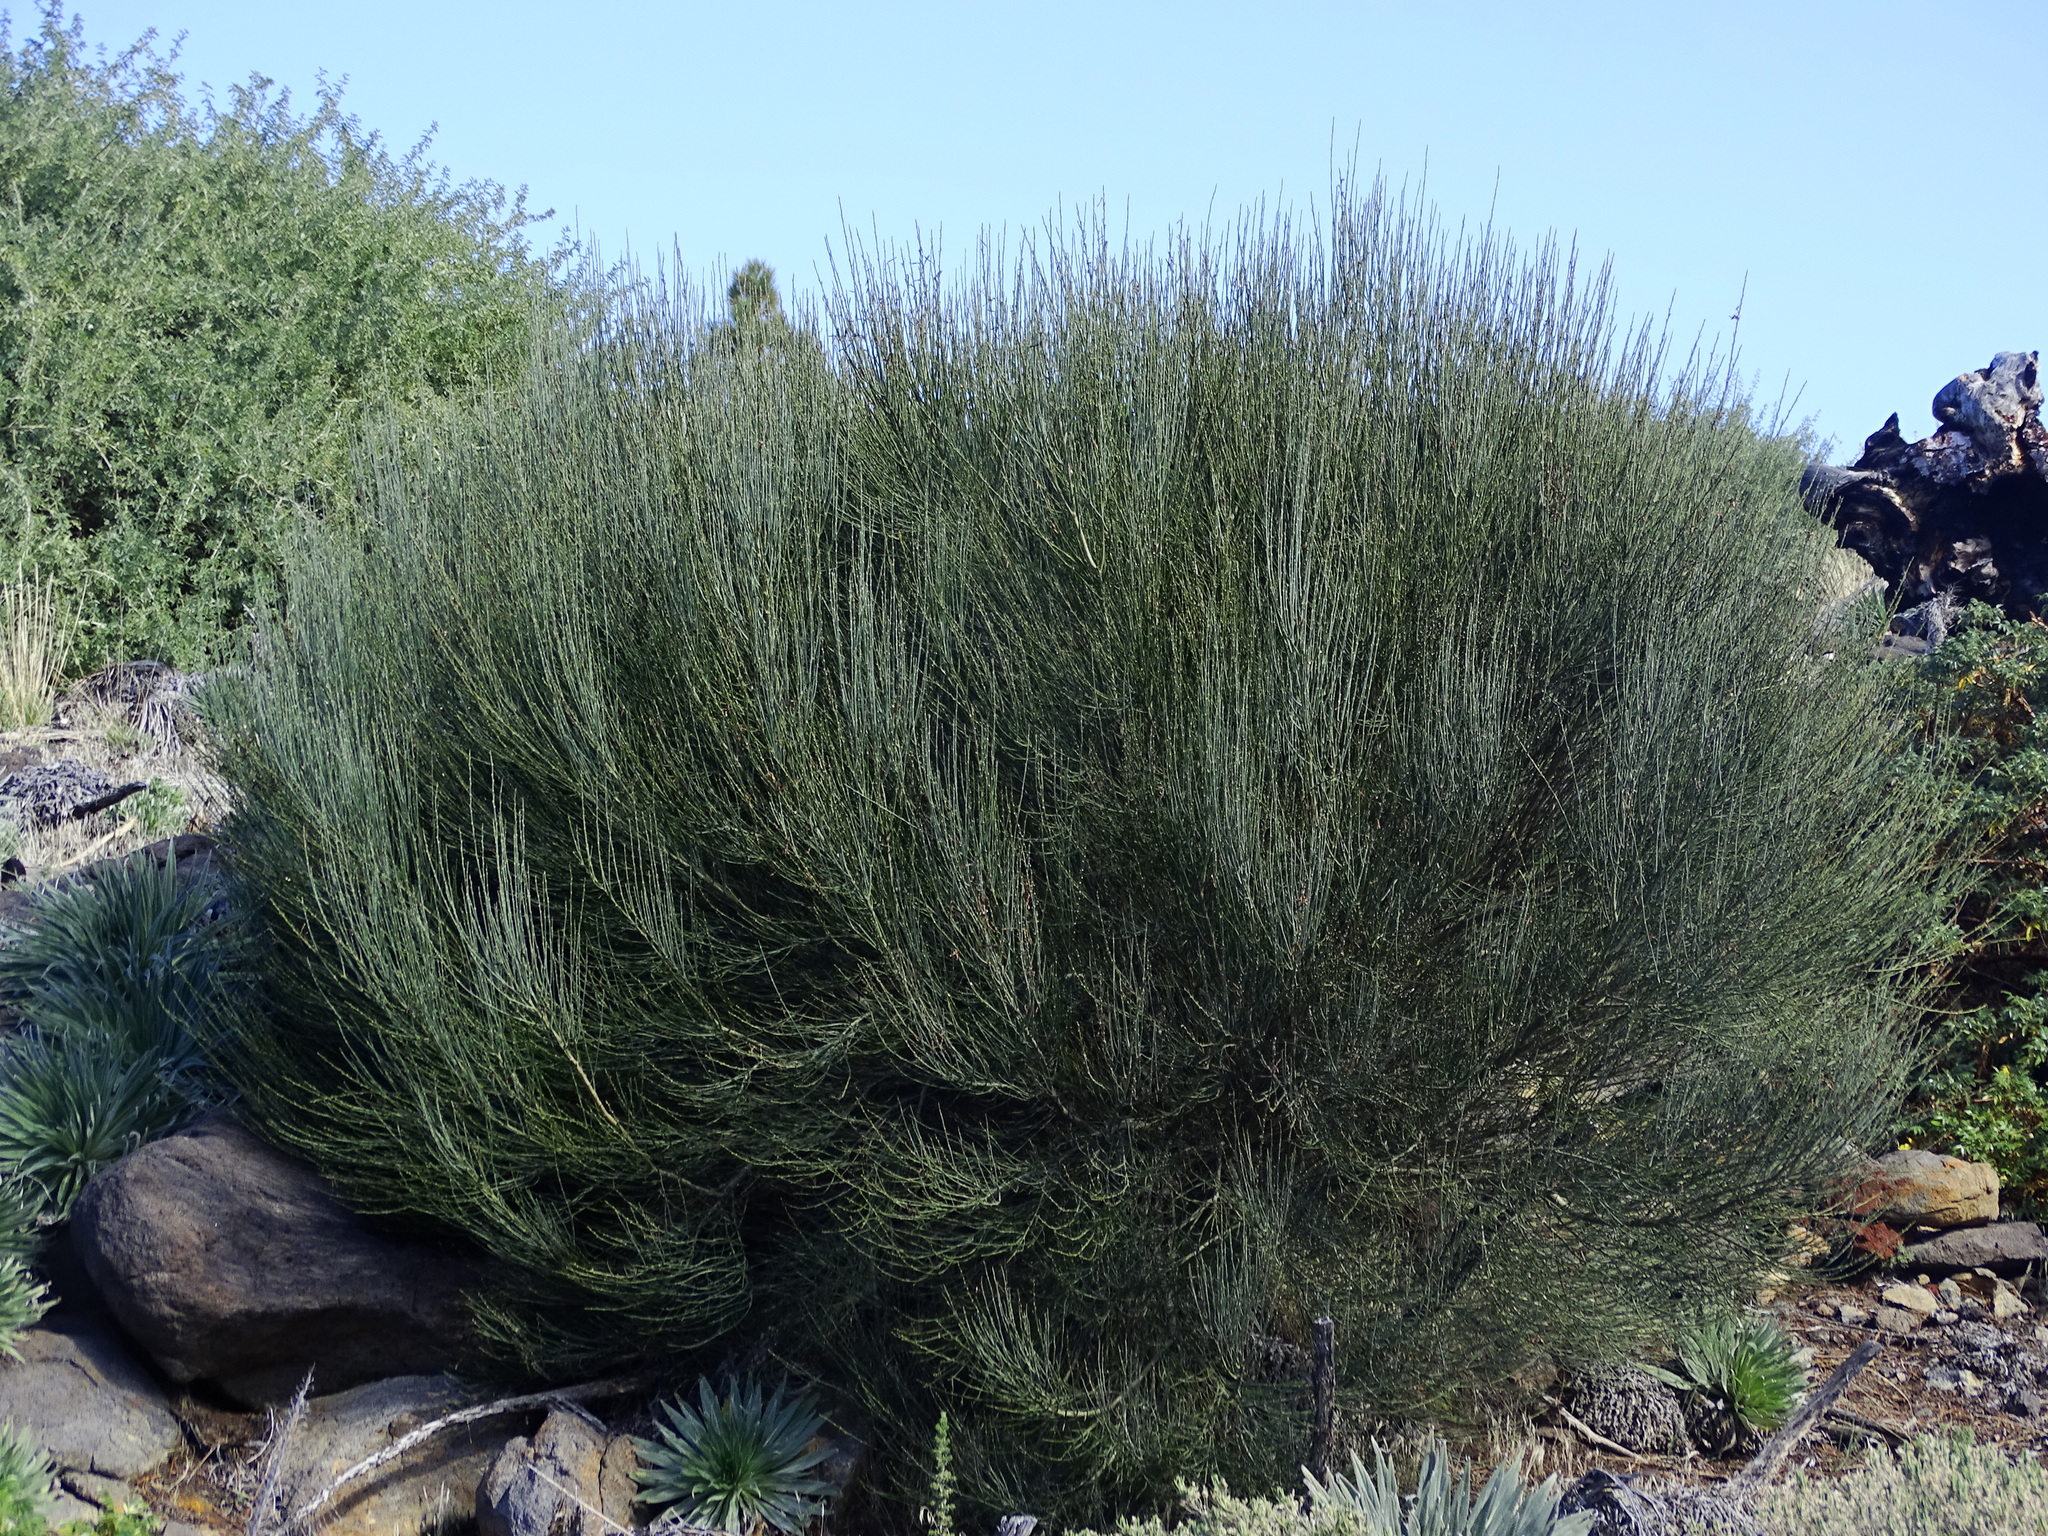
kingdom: Plantae
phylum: Tracheophyta
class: Magnoliopsida
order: Fabales
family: Fabaceae
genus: Cytisus
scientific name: Cytisus supranubius
